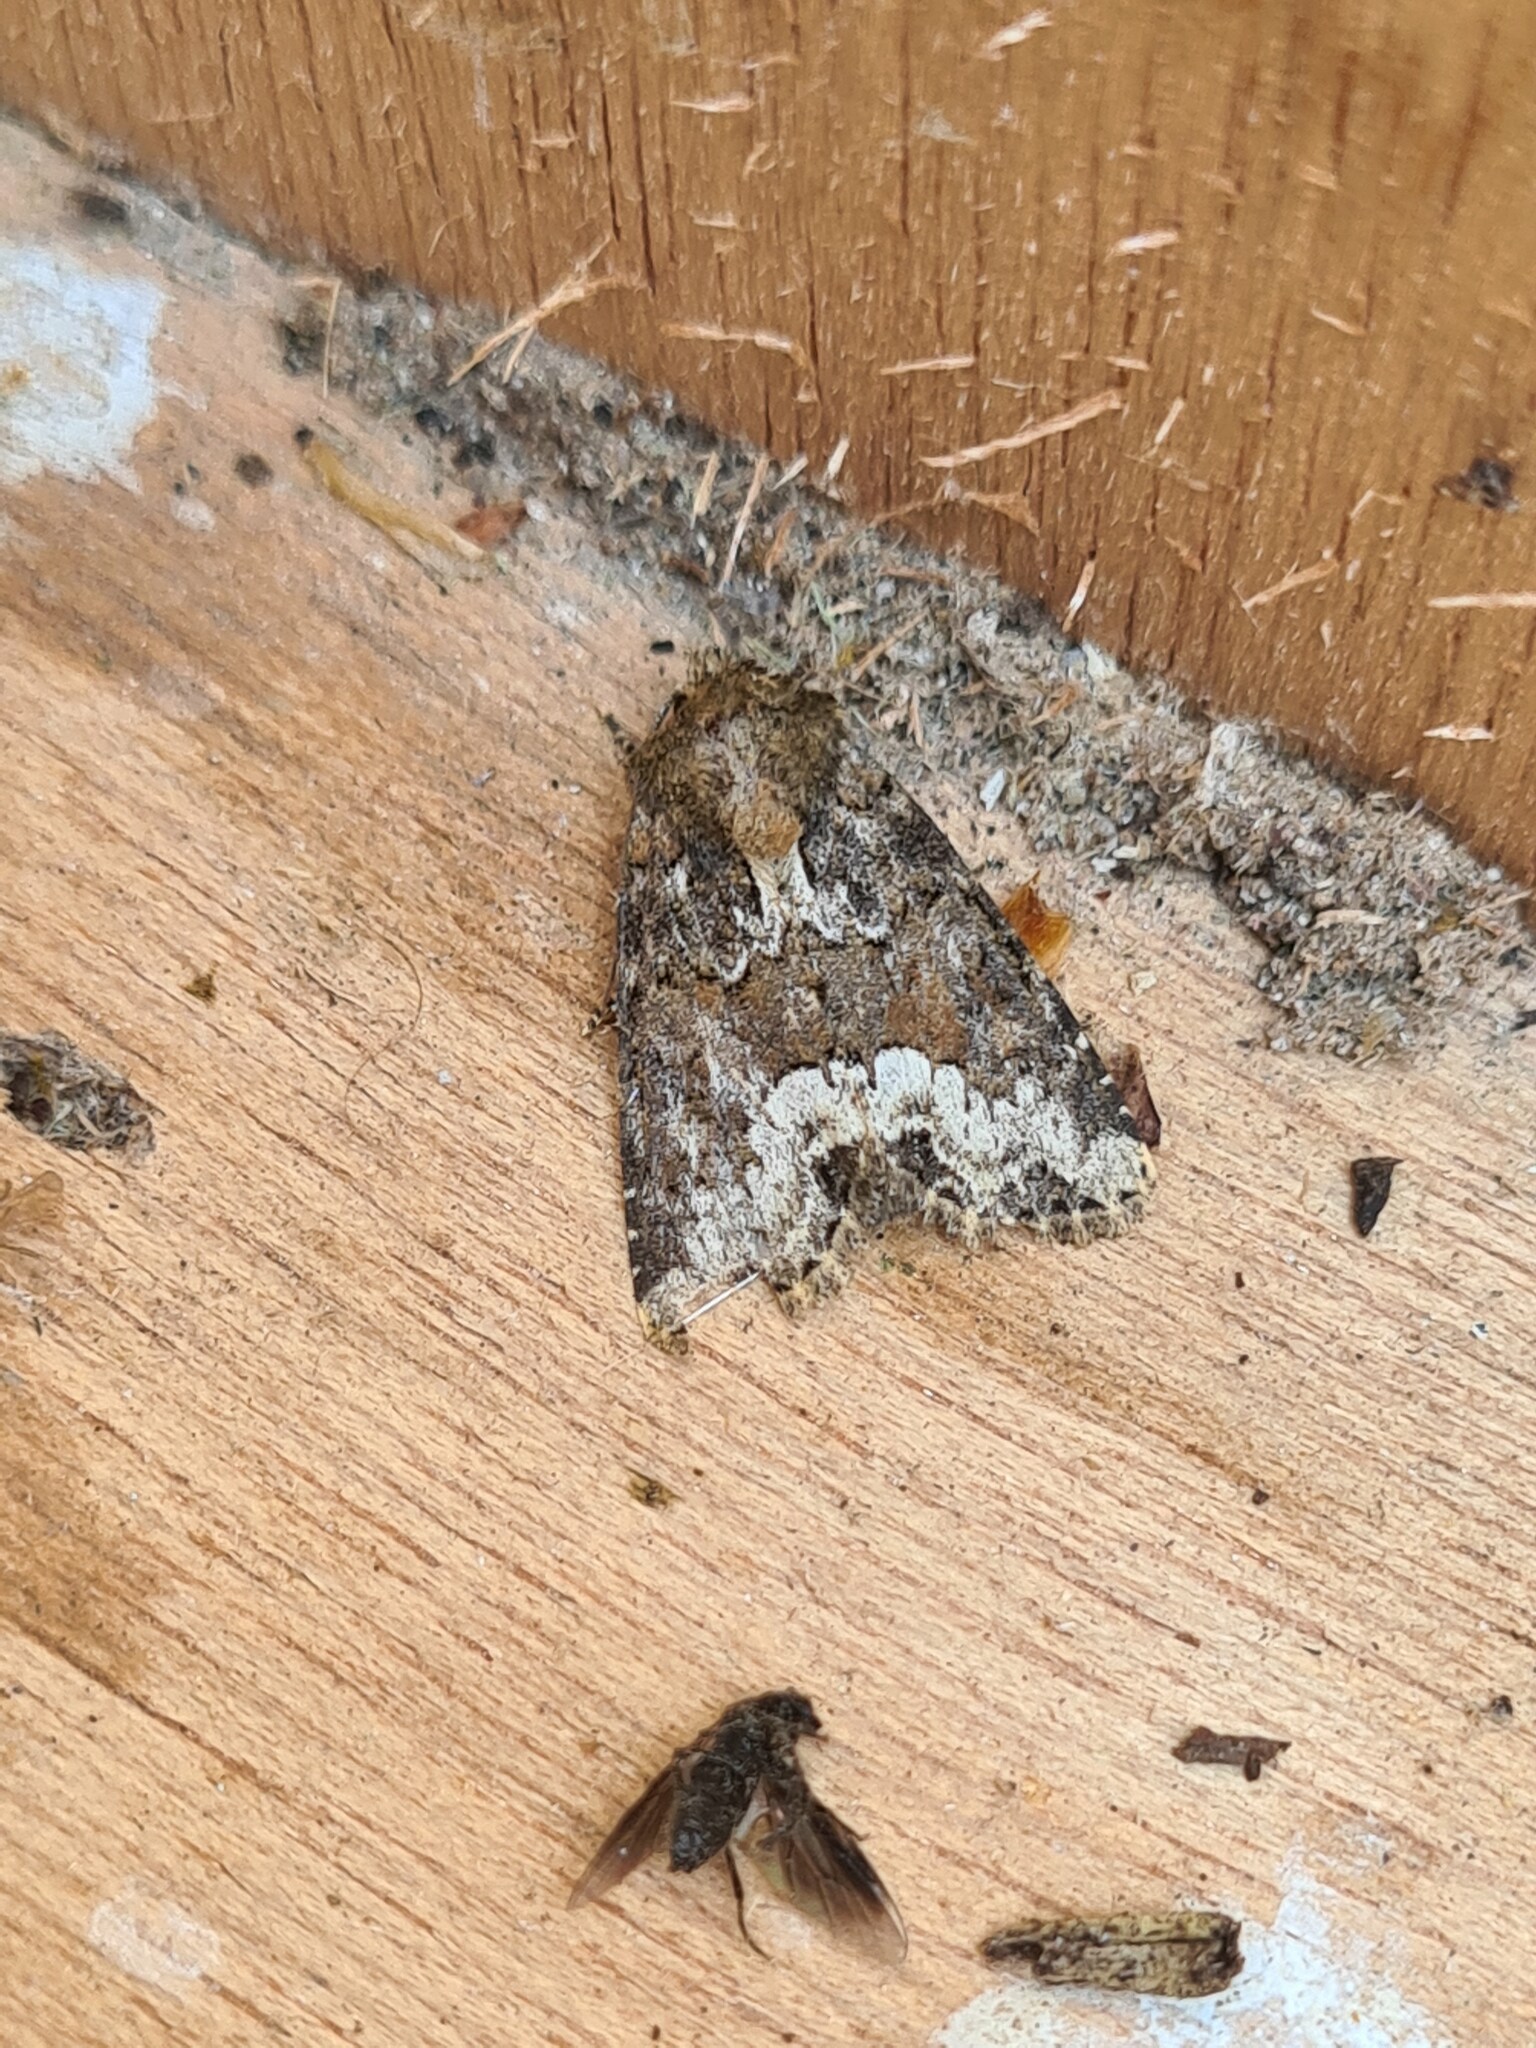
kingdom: Animalia
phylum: Arthropoda
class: Insecta
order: Lepidoptera
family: Noctuidae
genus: Oligia
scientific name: Oligia strigilis
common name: Marbled minor
